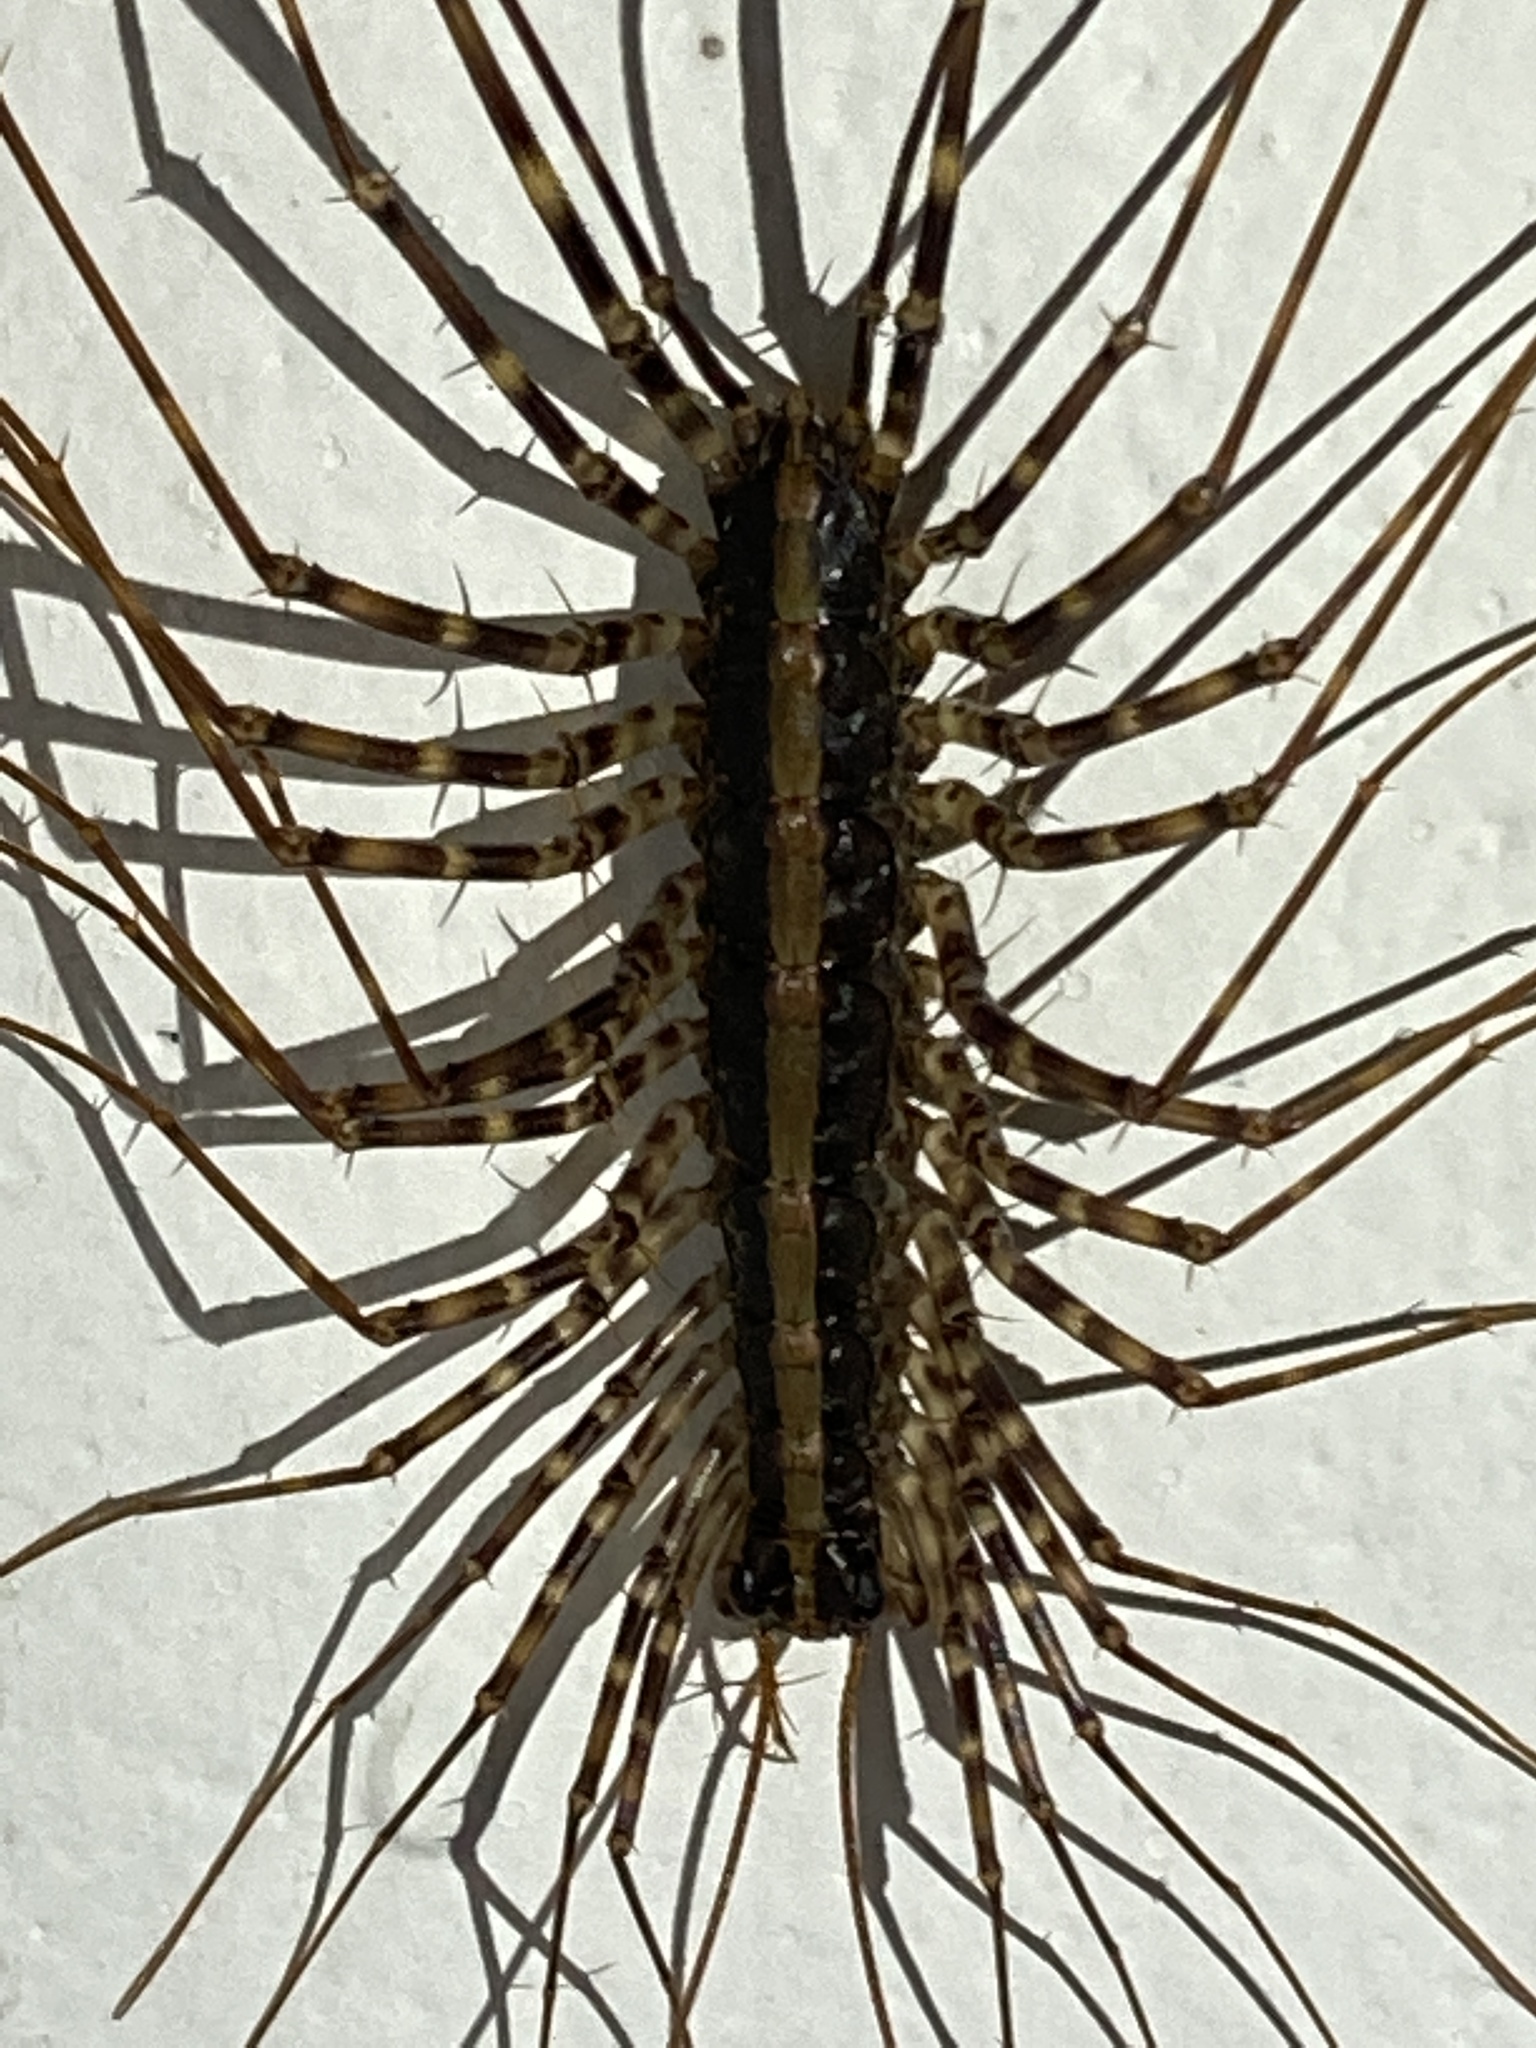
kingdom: Animalia
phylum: Arthropoda
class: Chilopoda
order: Scutigeromorpha
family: Pselliodidae
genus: Sphendononema
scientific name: Sphendononema guildingii
